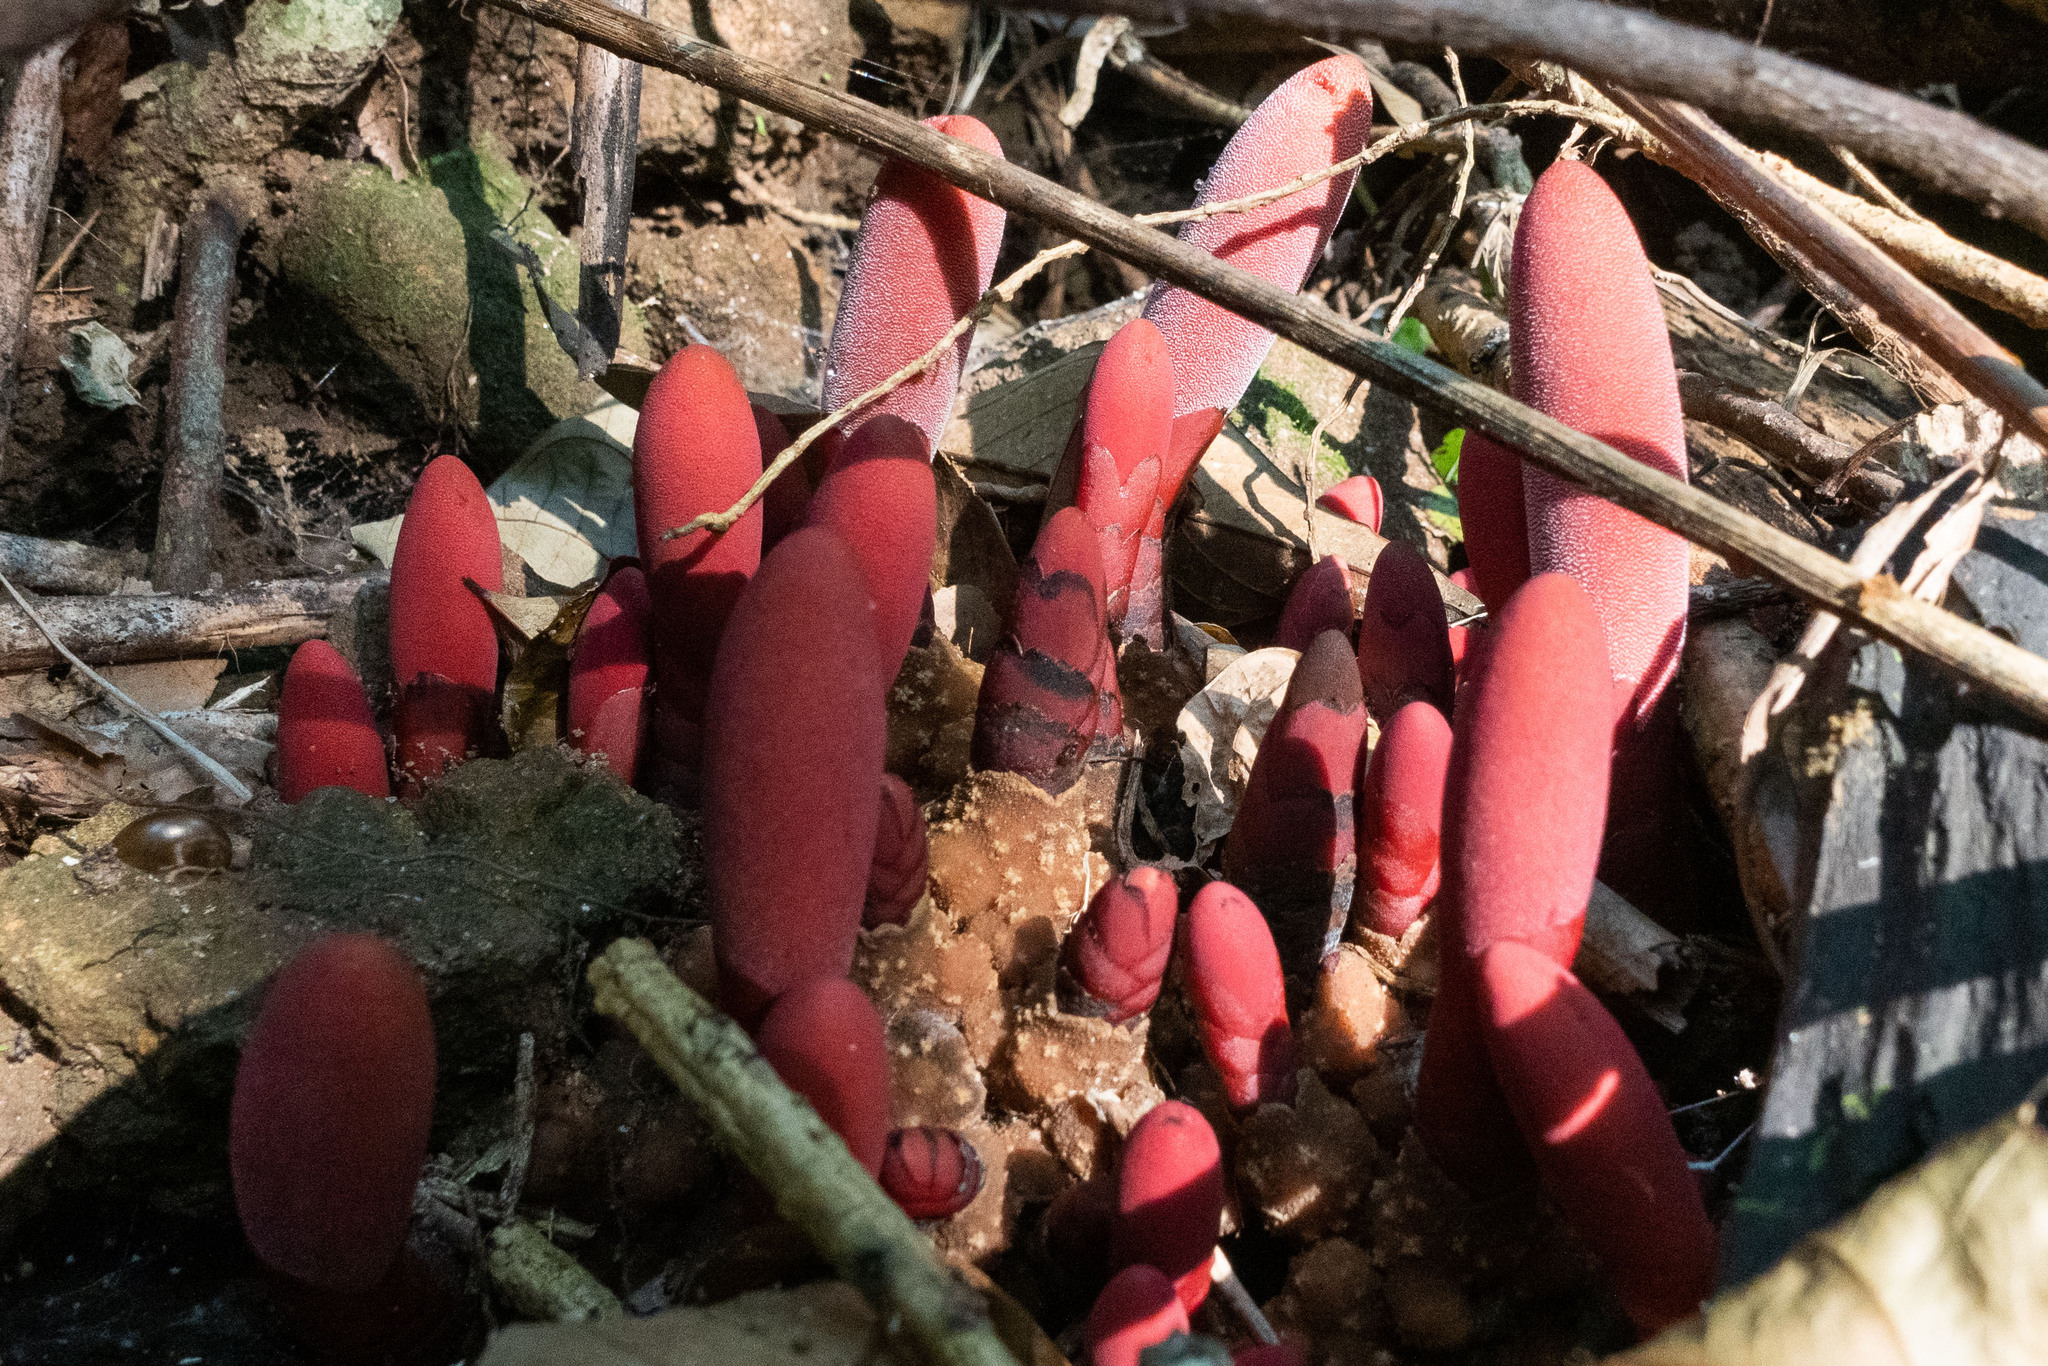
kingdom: Plantae
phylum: Tracheophyta
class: Magnoliopsida
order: Santalales
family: Balanophoraceae
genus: Balanophora
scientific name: Balanophora laxiflora
